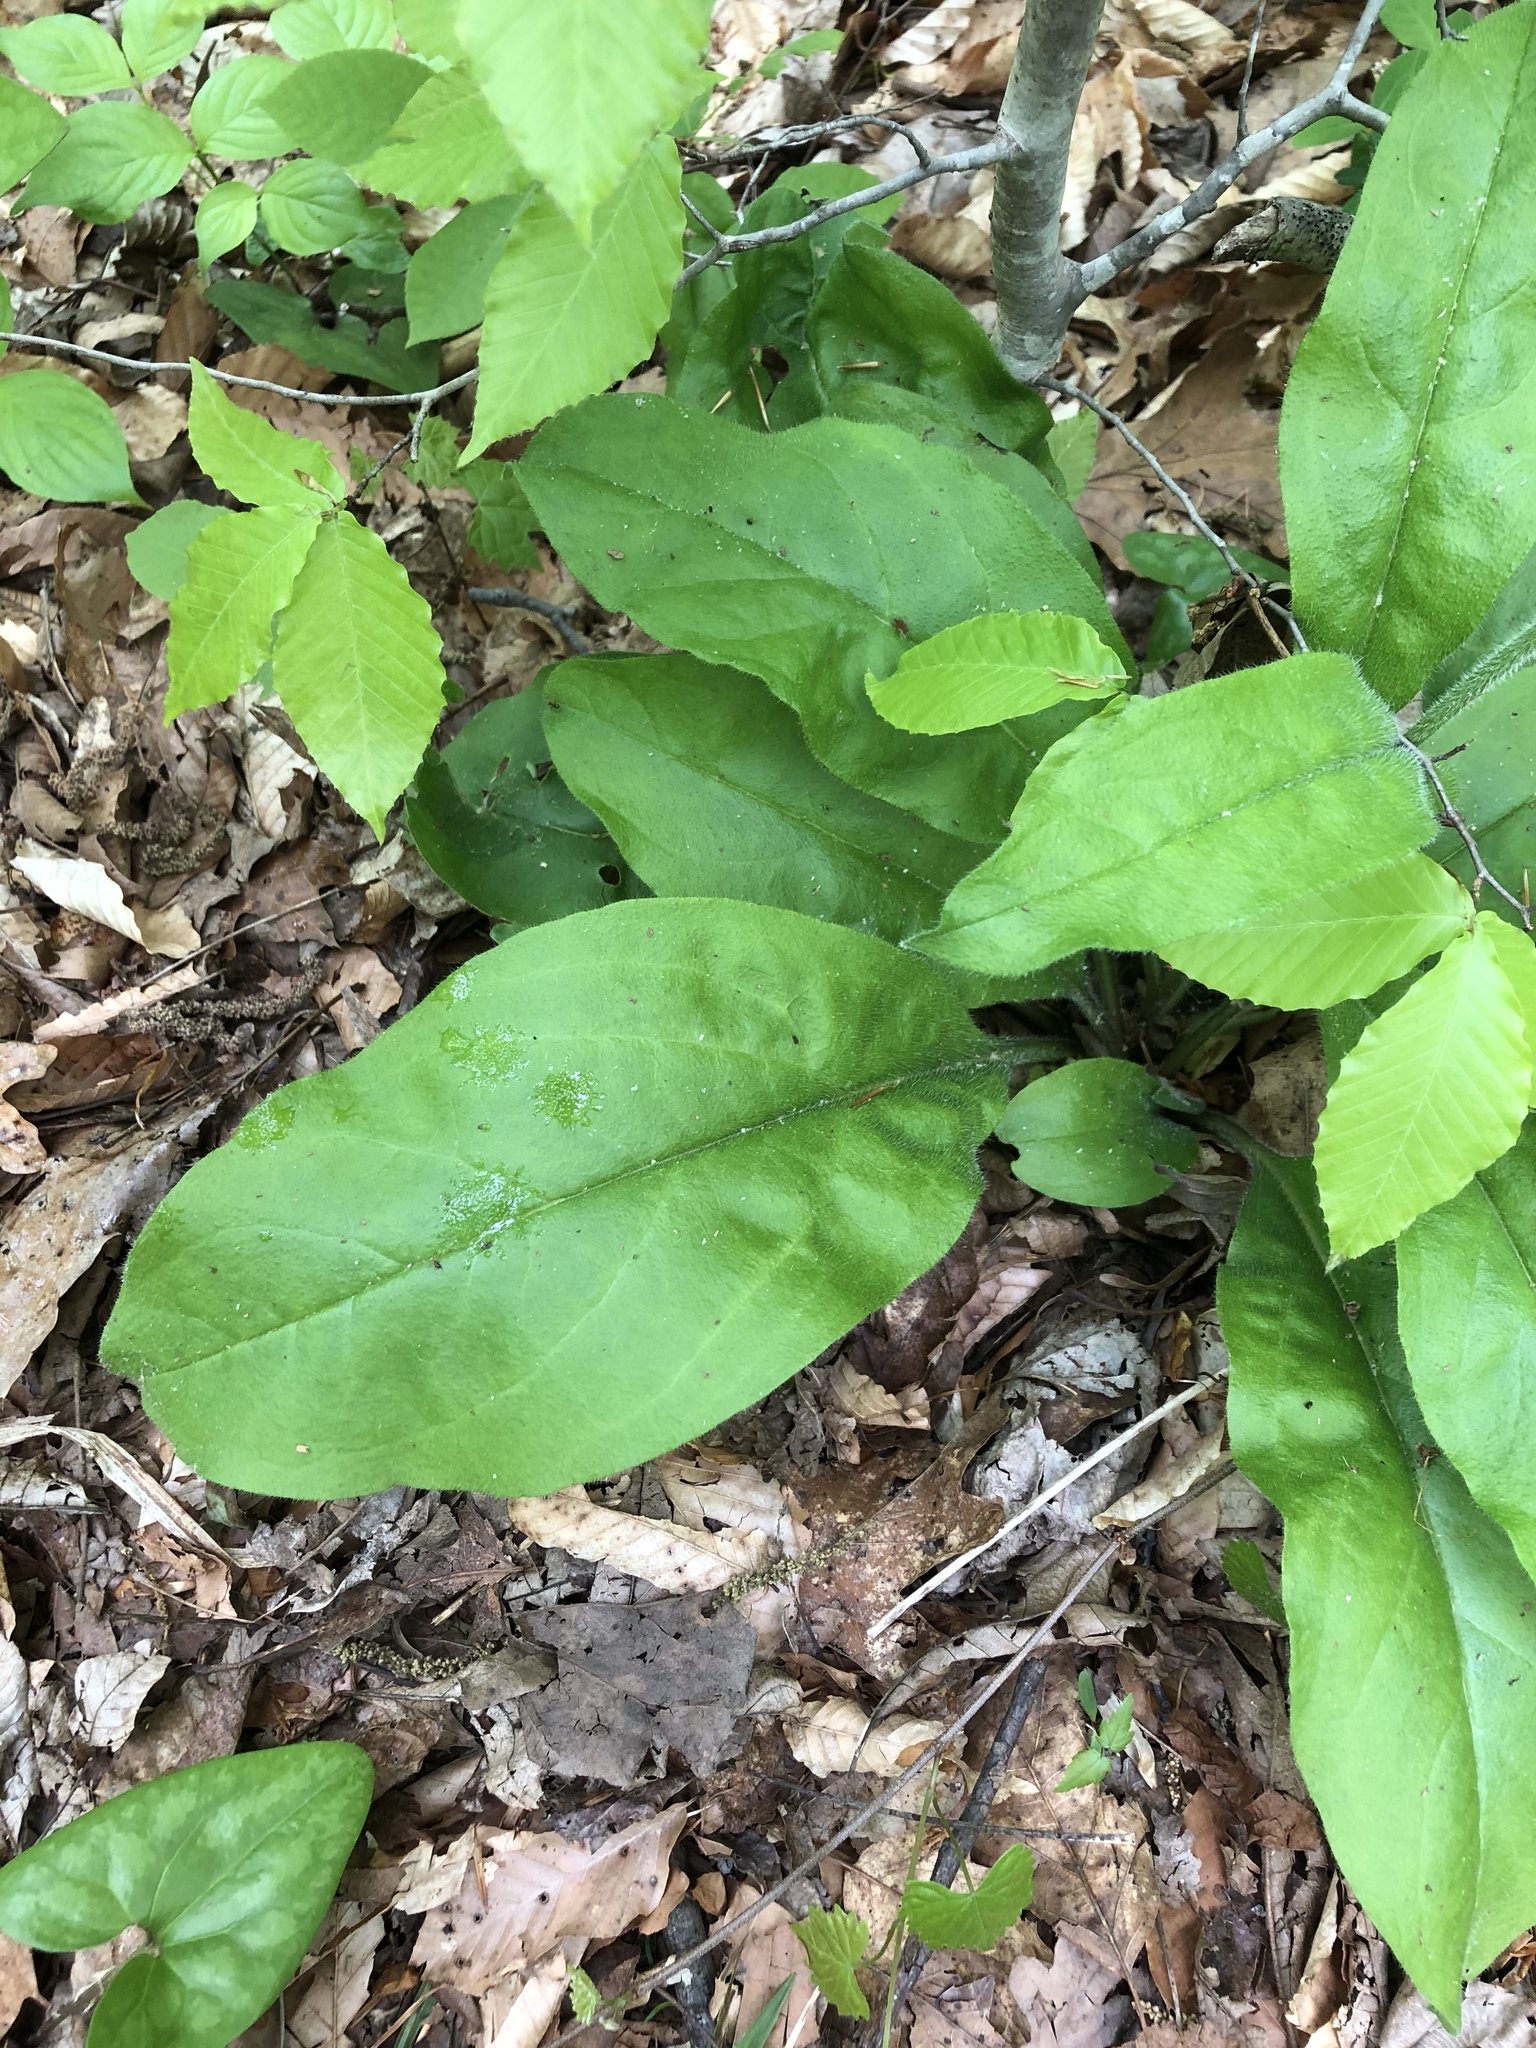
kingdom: Plantae
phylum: Tracheophyta
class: Magnoliopsida
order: Boraginales
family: Boraginaceae
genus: Andersonglossum
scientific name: Andersonglossum virginianum
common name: Wild comfrey
